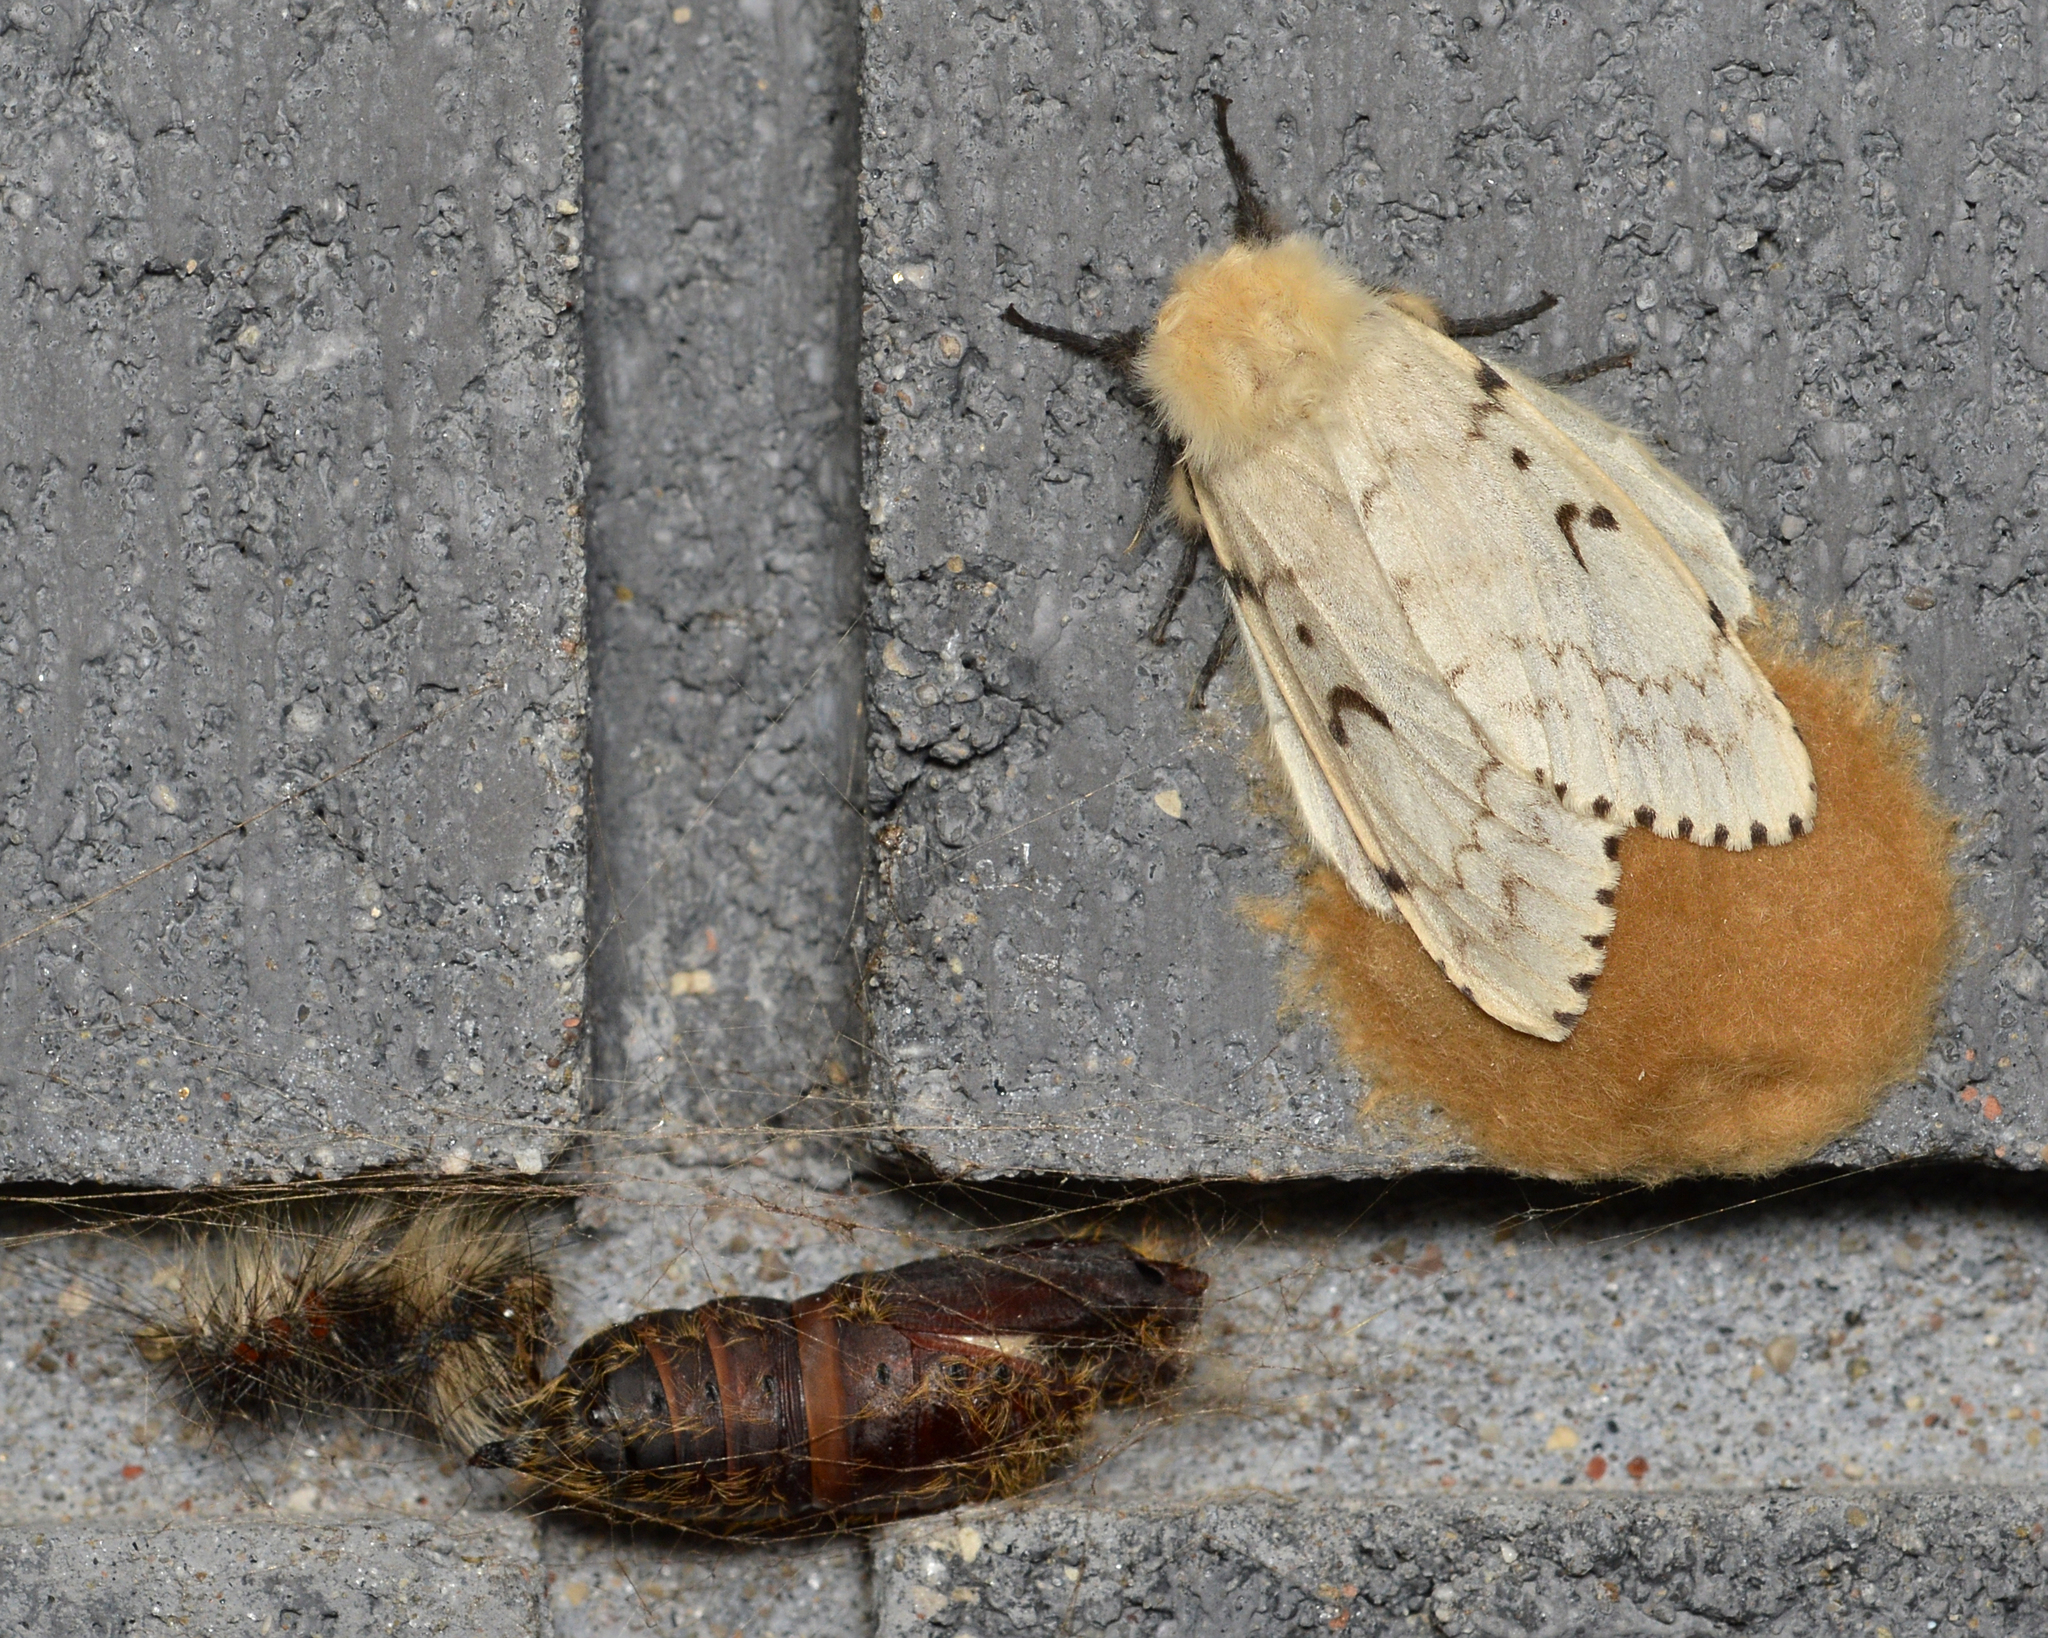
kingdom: Animalia
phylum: Arthropoda
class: Insecta
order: Lepidoptera
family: Erebidae
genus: Lymantria
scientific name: Lymantria dispar
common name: Gypsy moth
